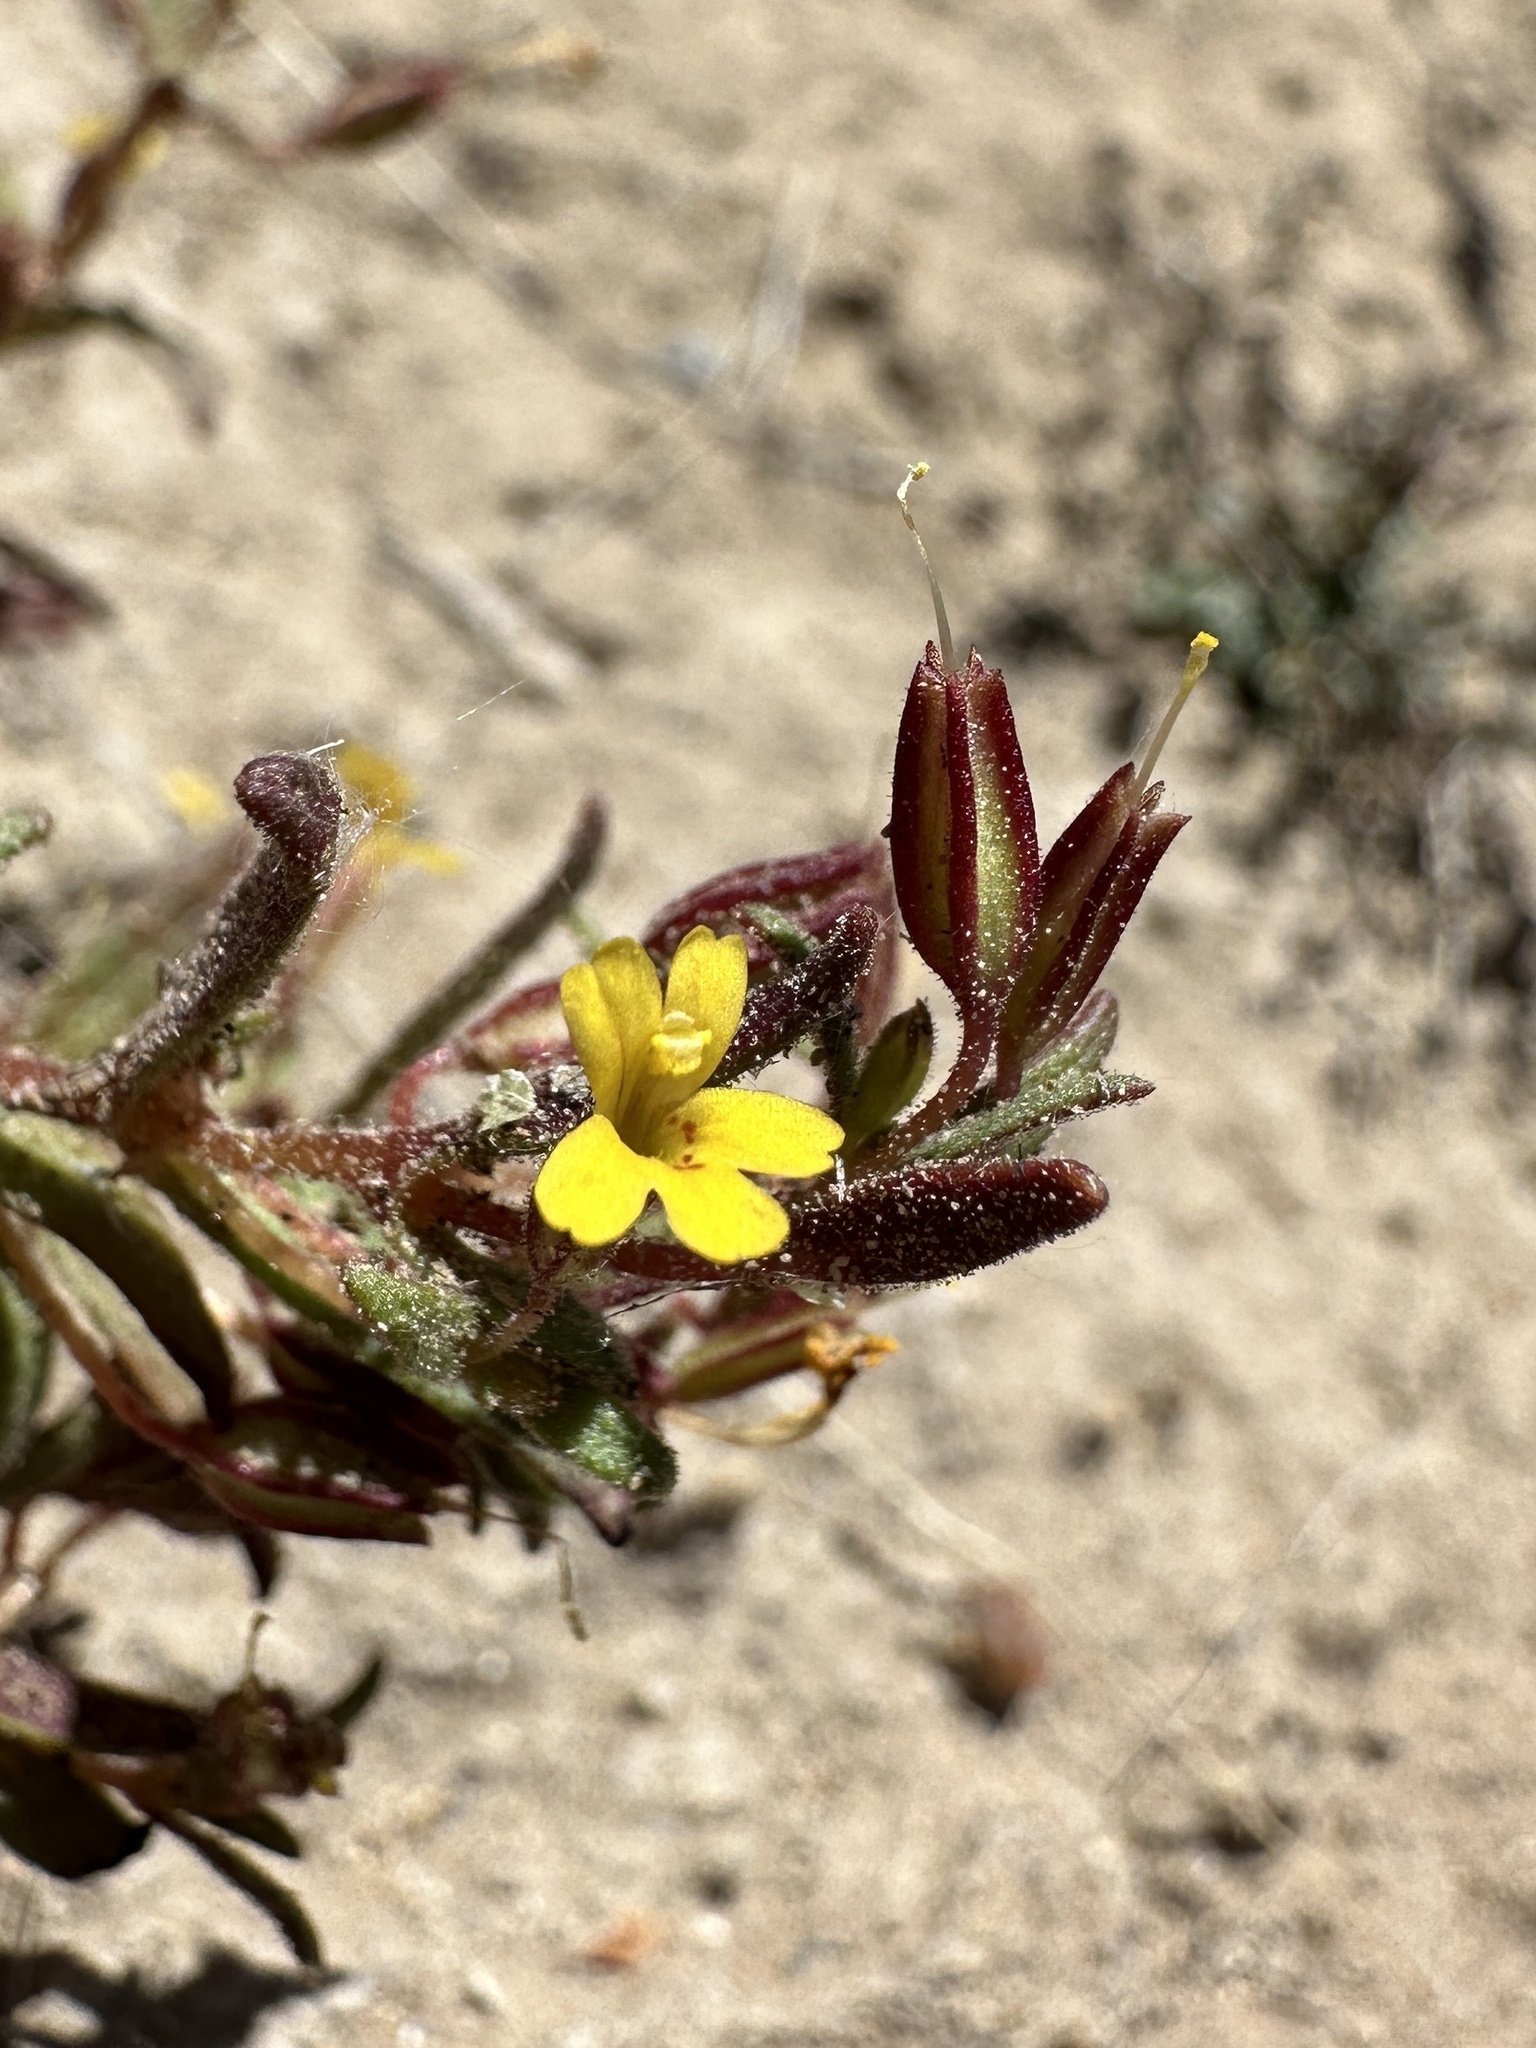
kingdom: Plantae
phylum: Tracheophyta
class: Magnoliopsida
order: Lamiales
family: Phrymaceae
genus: Erythranthe
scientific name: Erythranthe suksdorfii
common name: Suksdorf's monkeyflower
